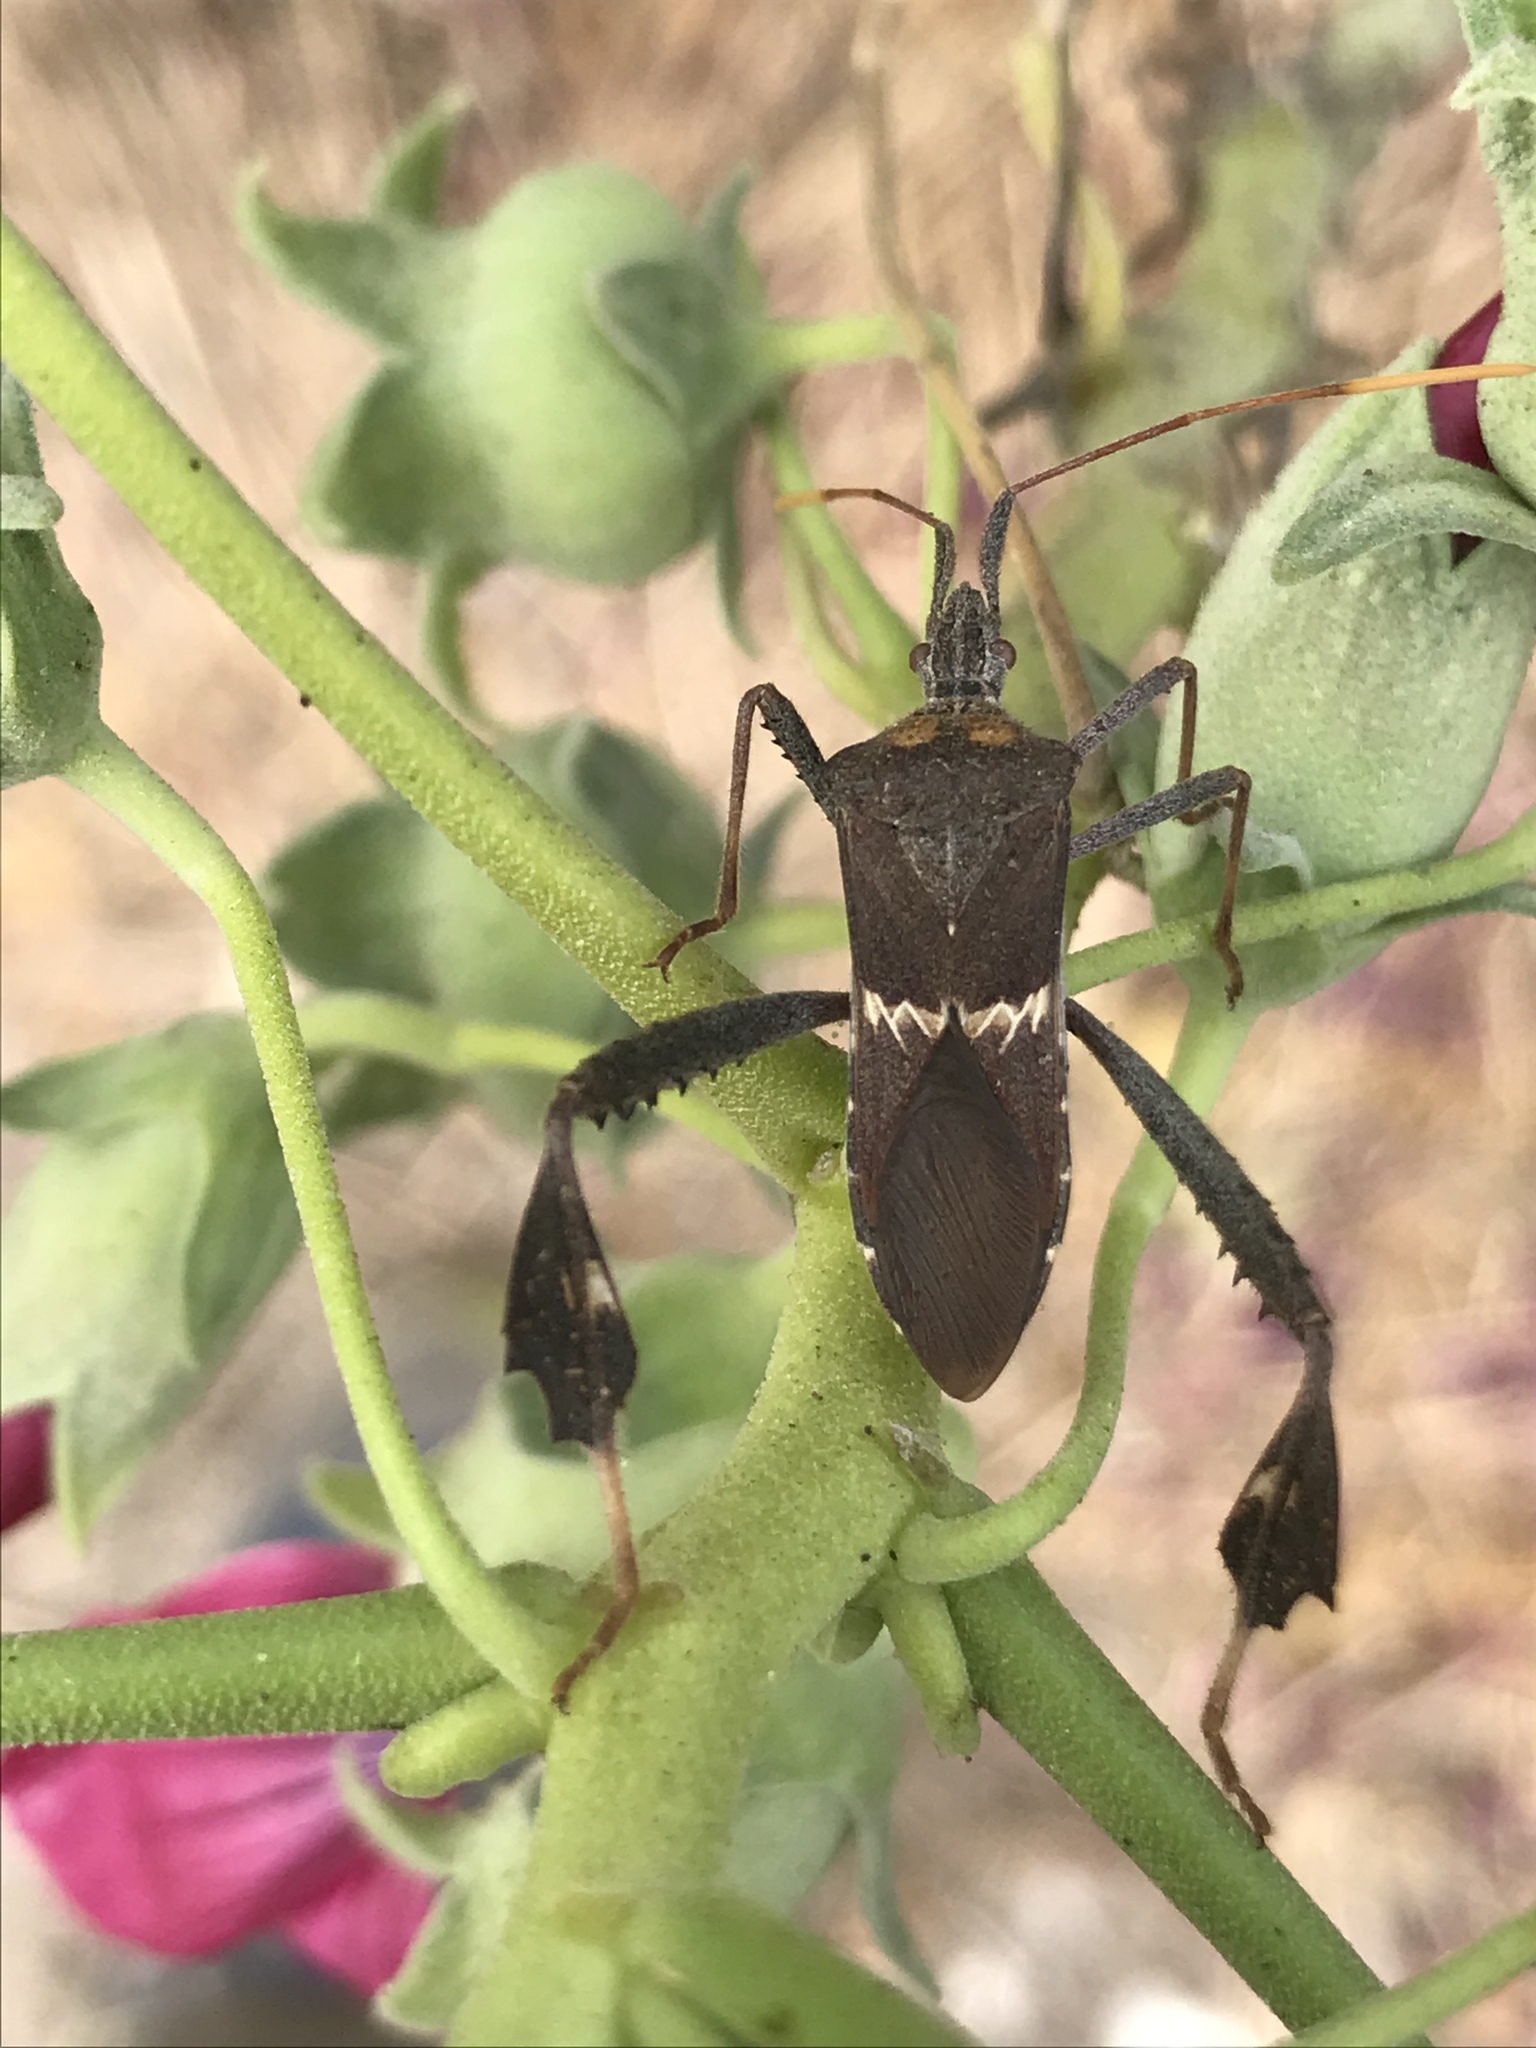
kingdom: Animalia
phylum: Arthropoda
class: Insecta
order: Hemiptera
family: Coreidae
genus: Leptoglossus
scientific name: Leptoglossus zonatus
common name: Large-legged bug
